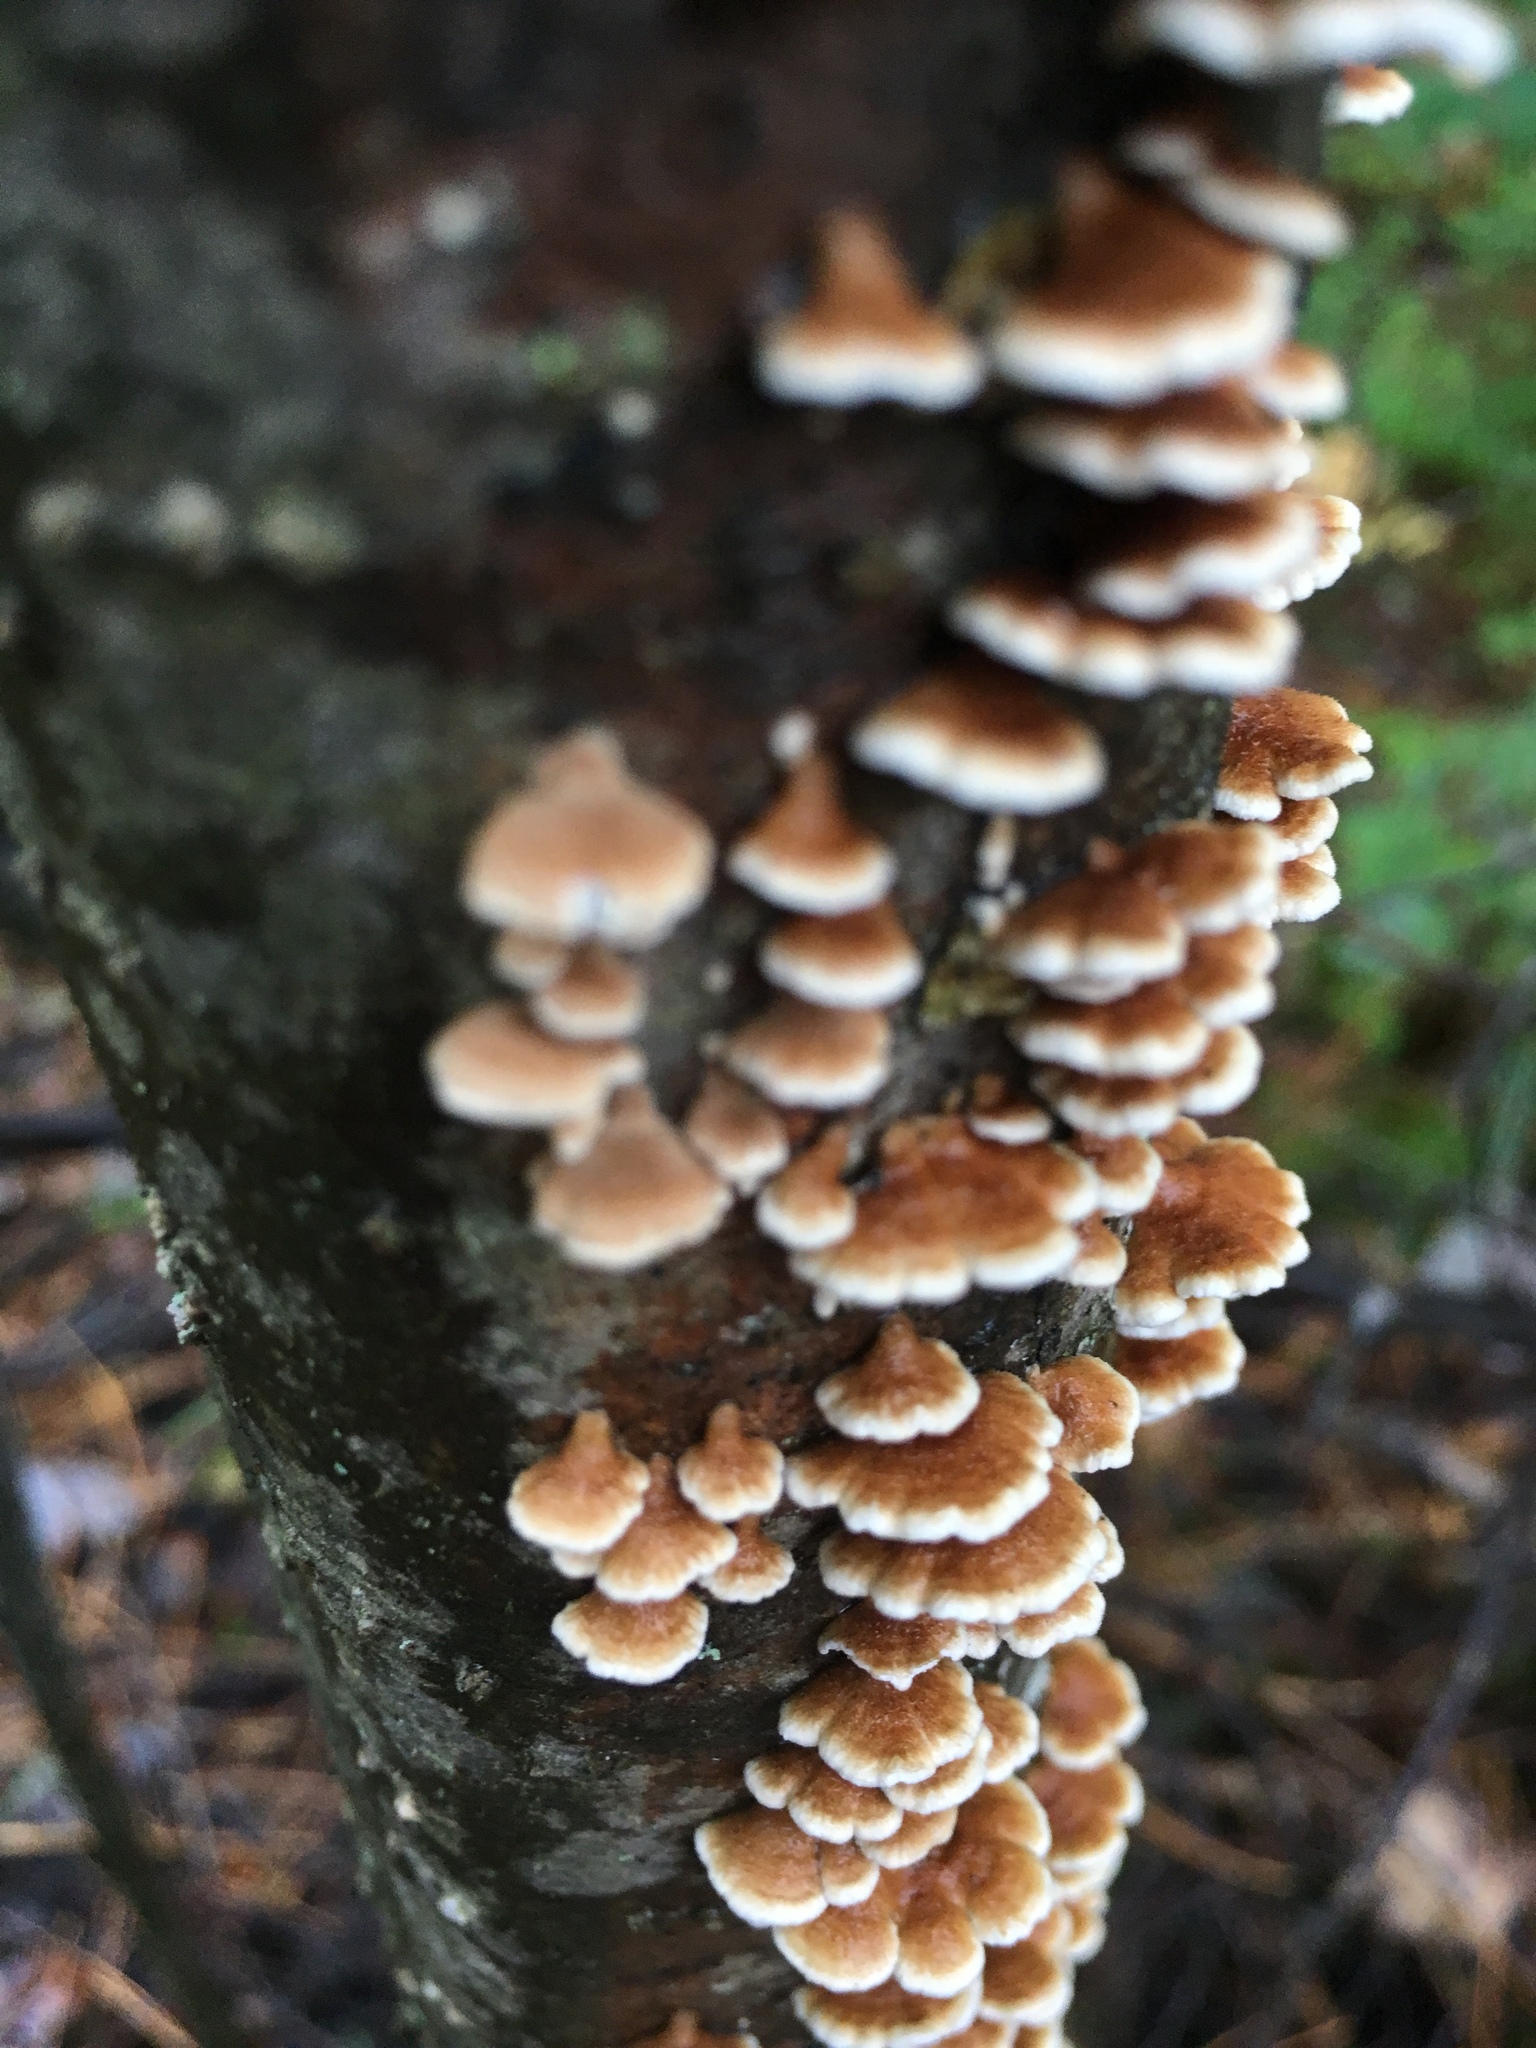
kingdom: Fungi
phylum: Basidiomycota
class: Agaricomycetes
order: Amylocorticiales
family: Amylocorticiaceae
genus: Plicaturopsis
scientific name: Plicaturopsis crispa
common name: Crimped gill
